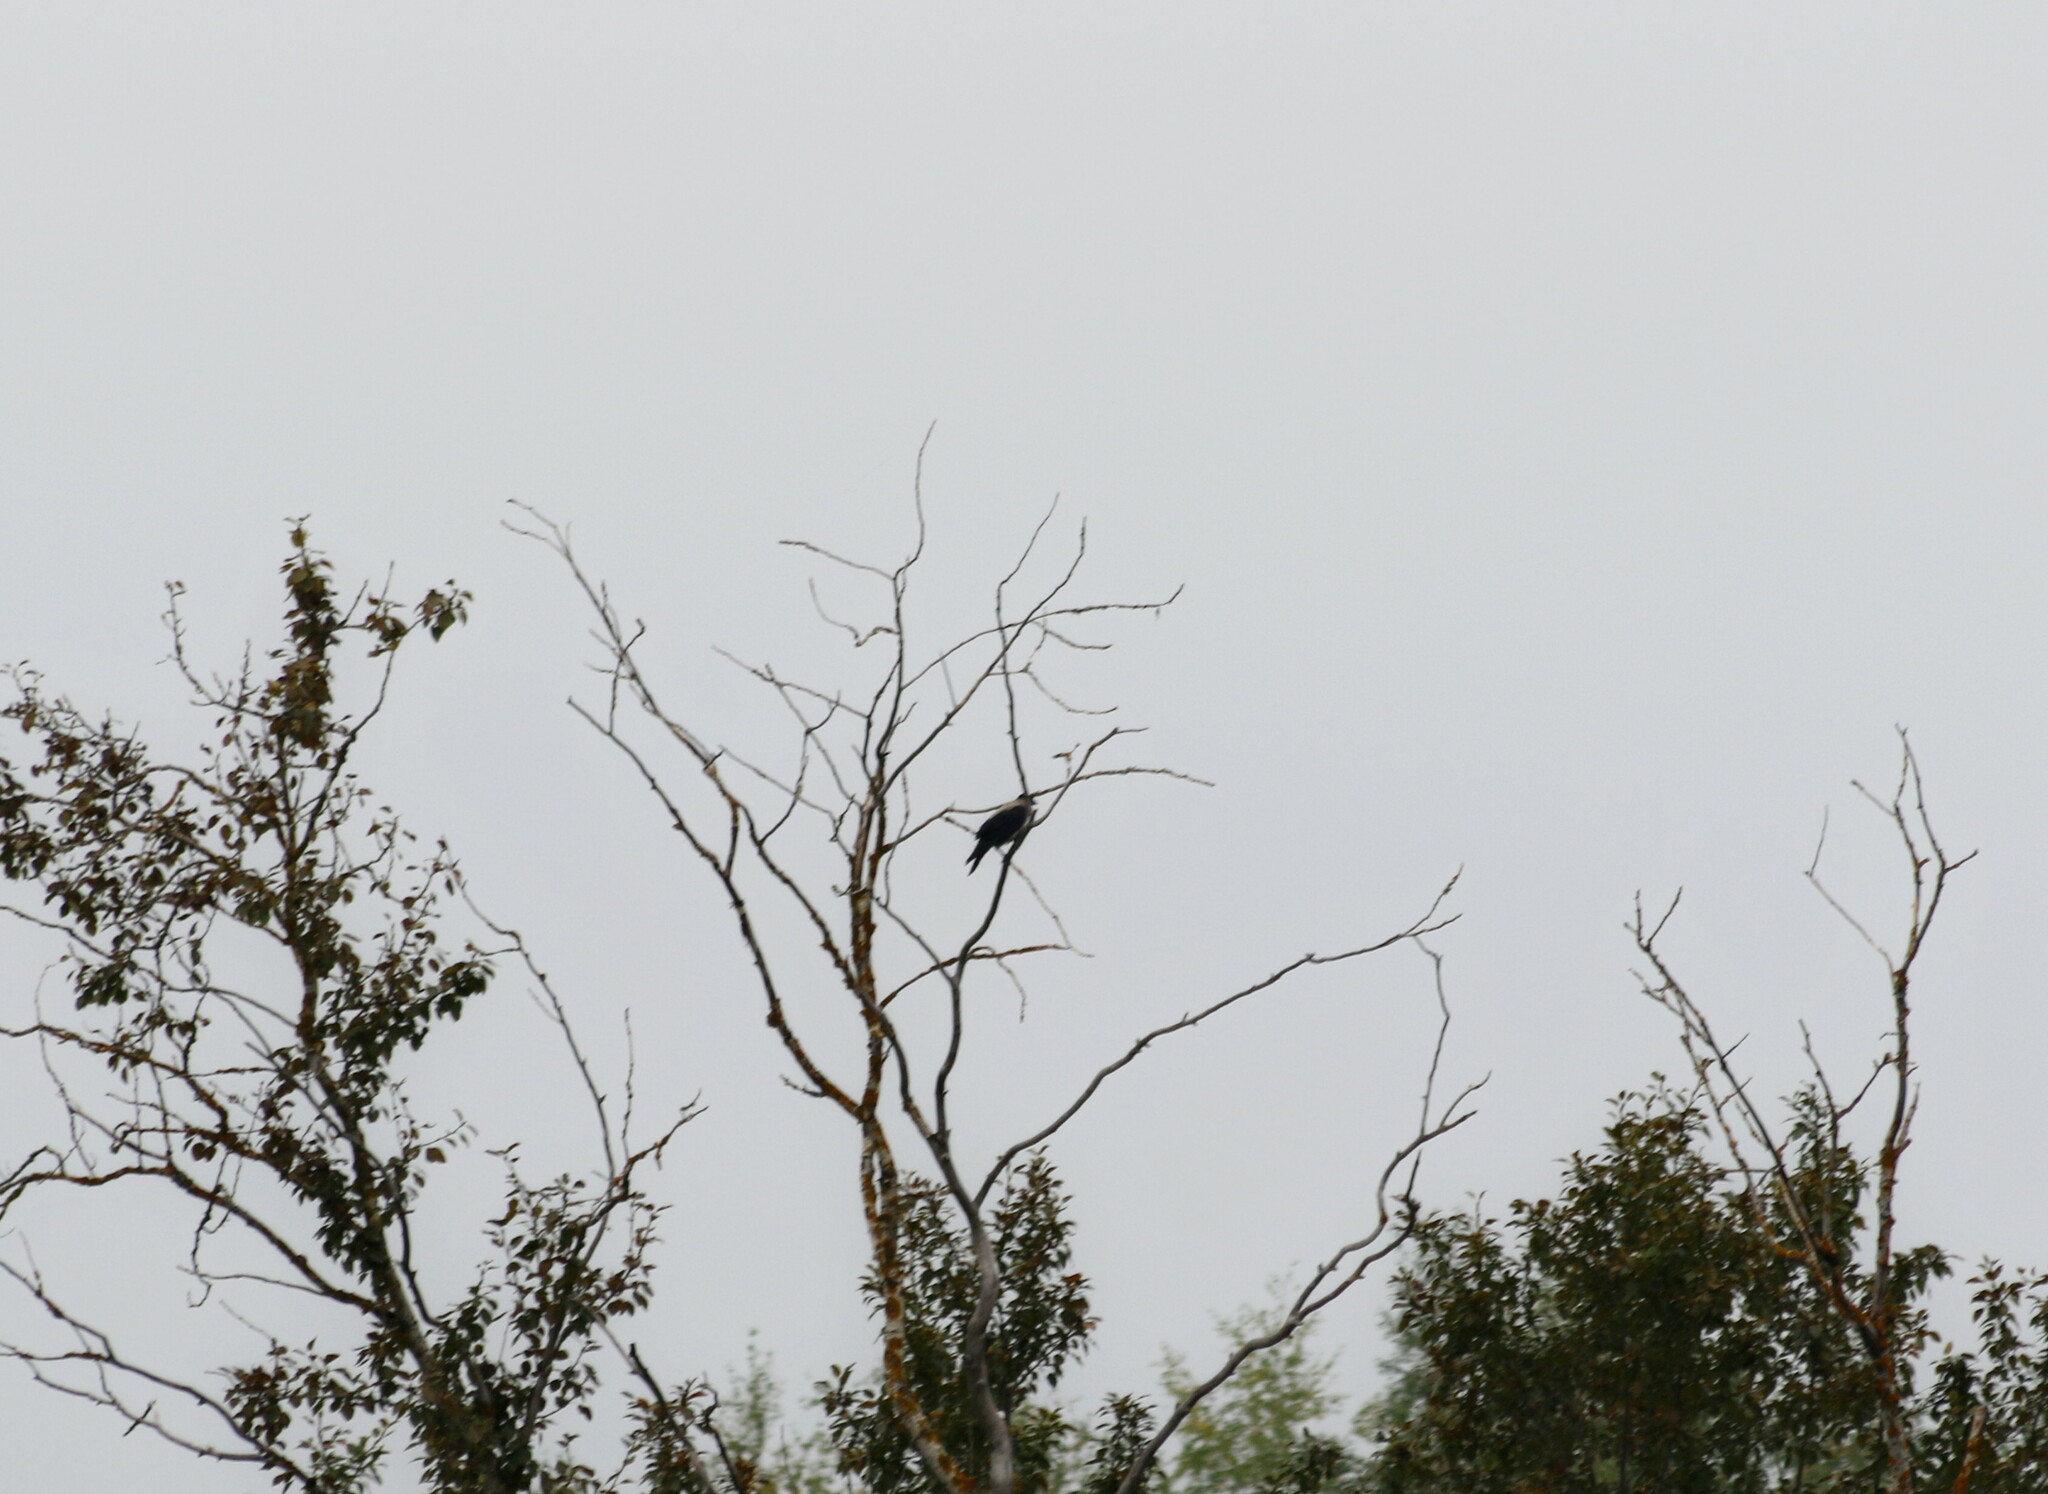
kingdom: Animalia
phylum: Chordata
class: Aves
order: Passeriformes
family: Corvidae
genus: Corvus
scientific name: Corvus cornix
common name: Hooded crow
